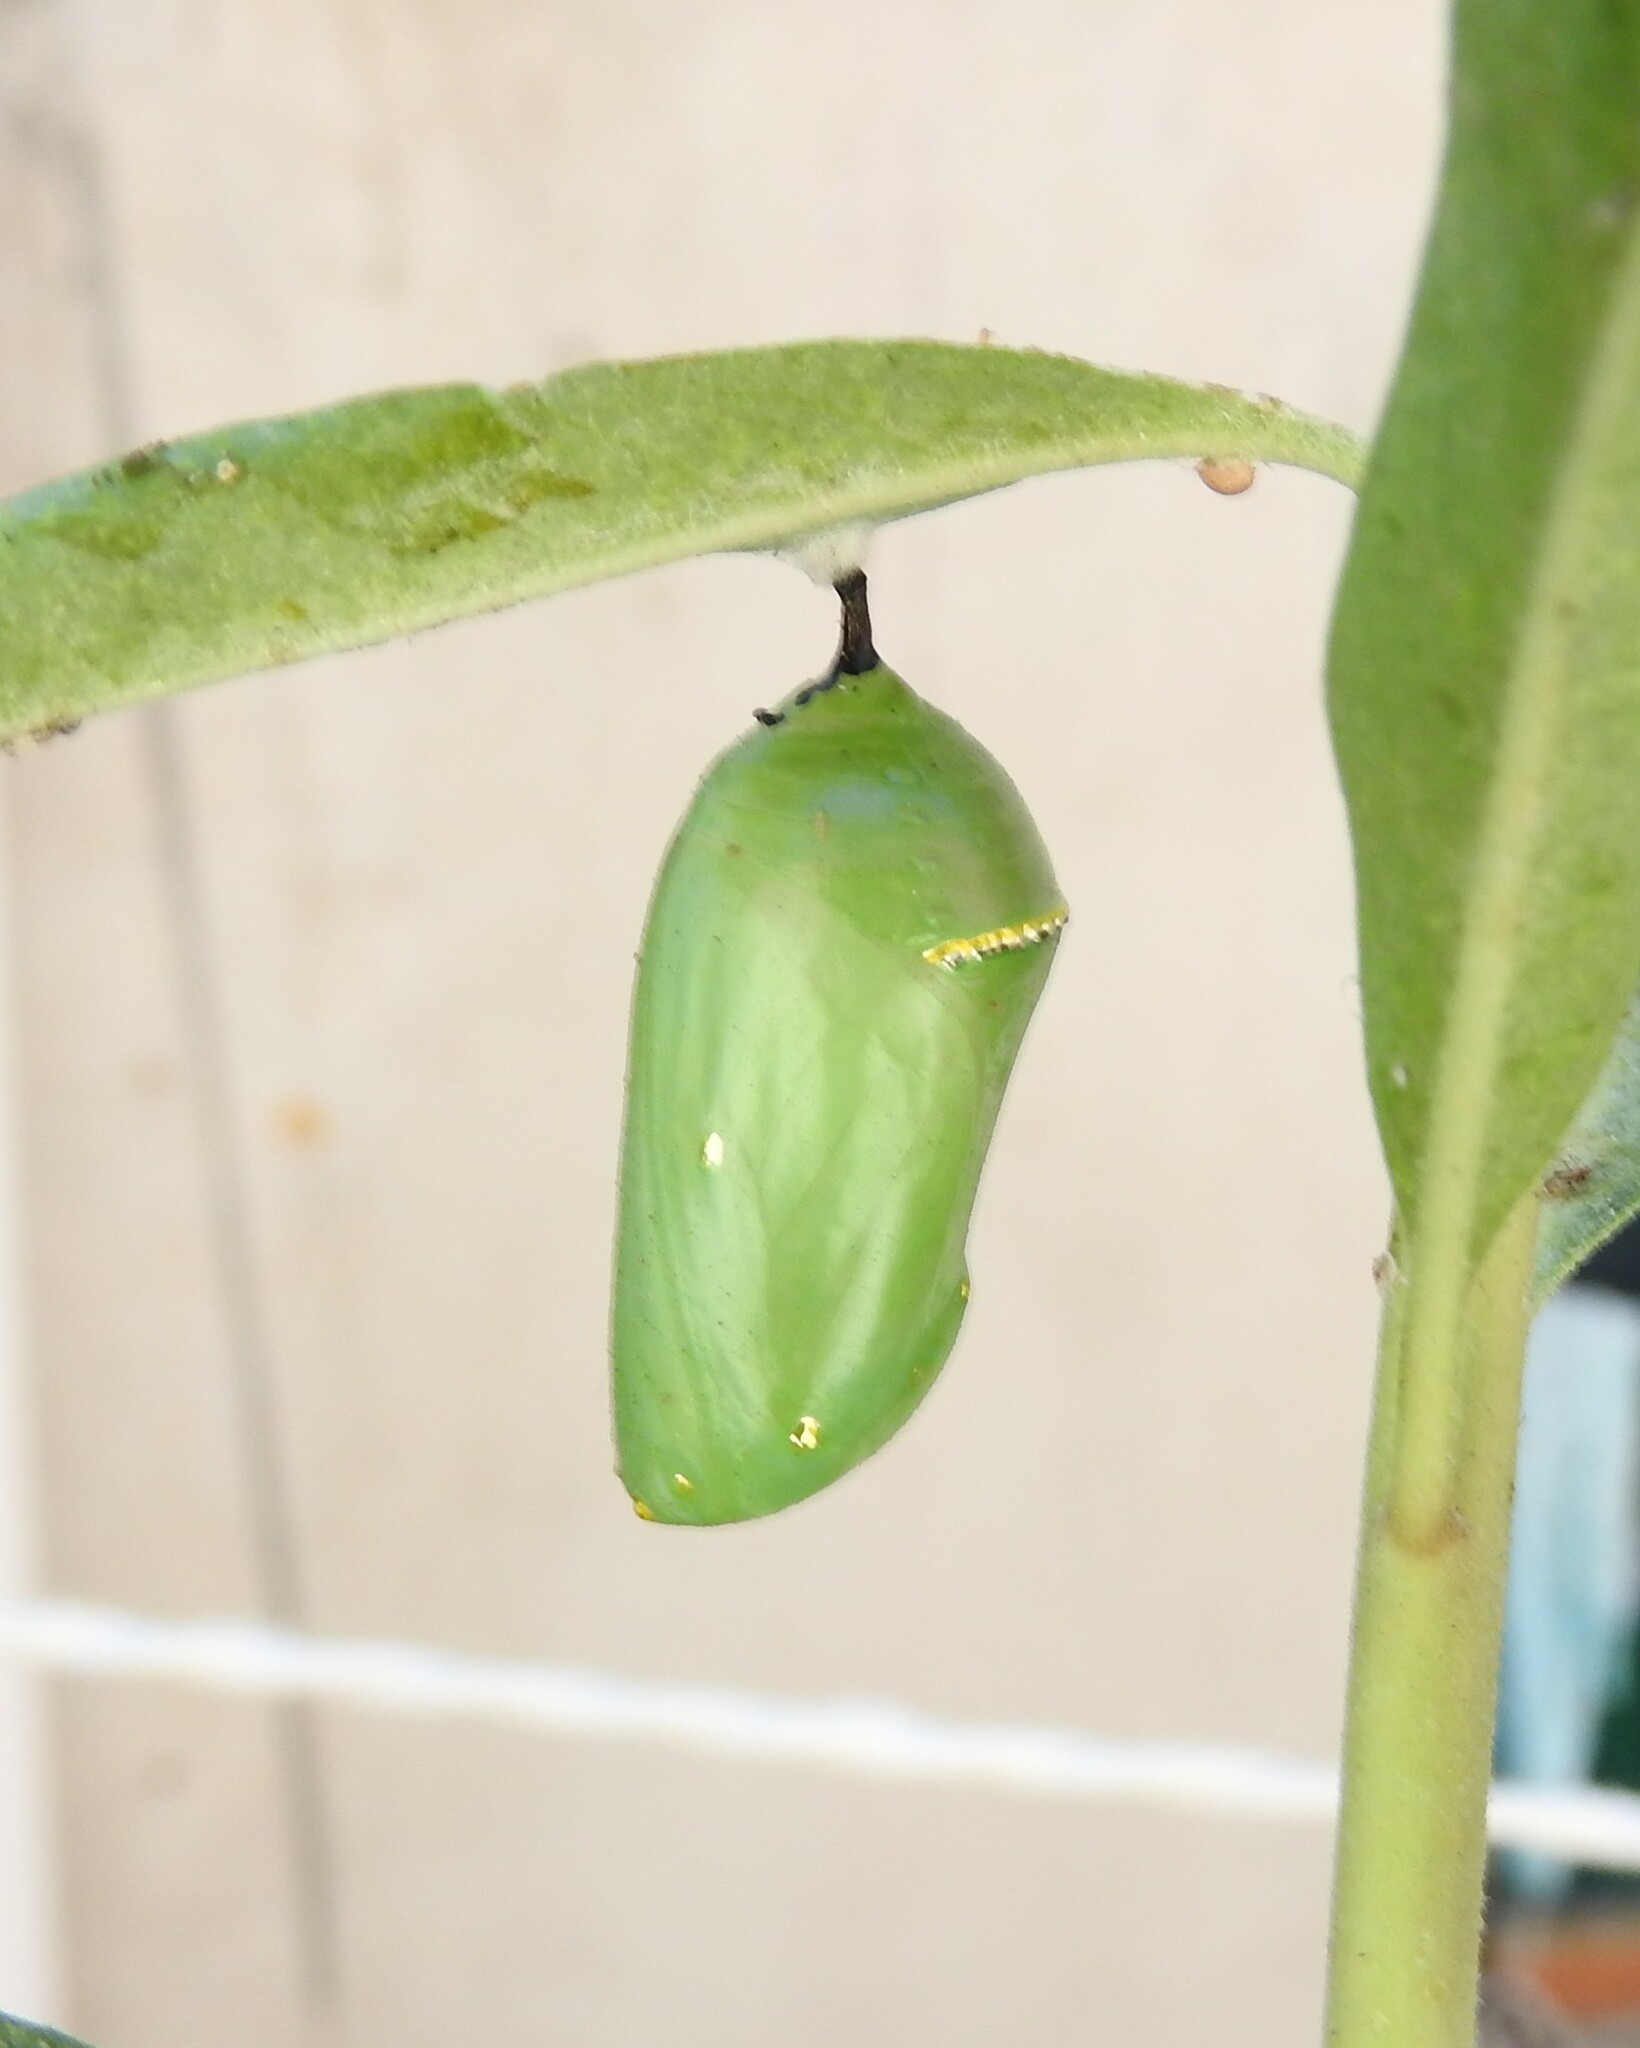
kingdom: Animalia
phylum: Arthropoda
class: Insecta
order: Lepidoptera
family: Nymphalidae
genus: Danaus
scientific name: Danaus plexippus
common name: Monarch
